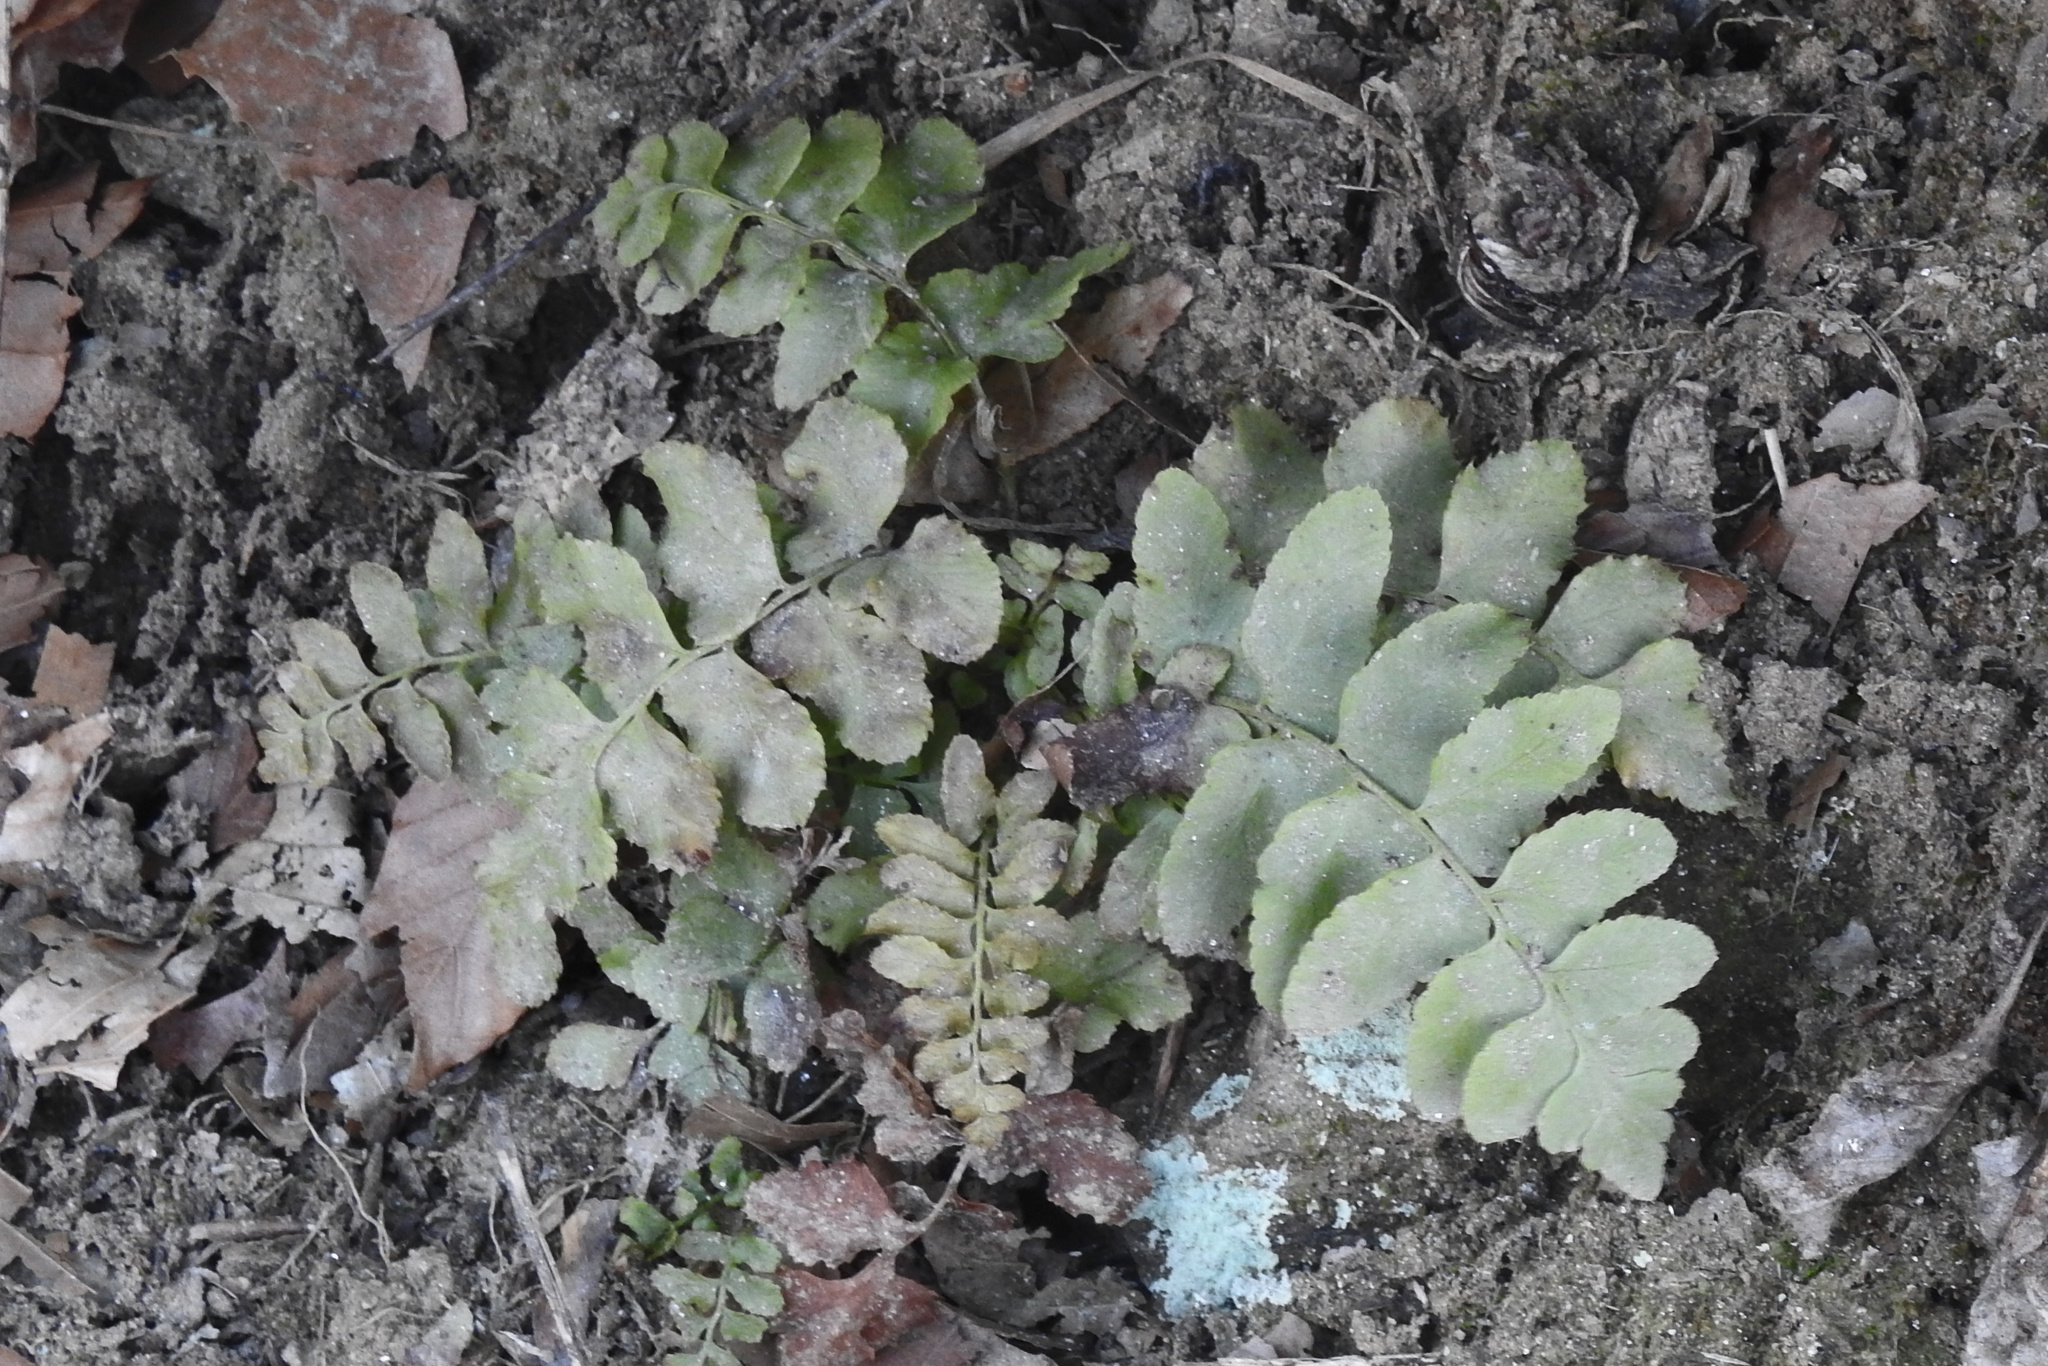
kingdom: Plantae
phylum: Tracheophyta
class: Polypodiopsida
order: Polypodiales
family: Dryopteridaceae
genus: Polystichum
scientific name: Polystichum acrostichoides
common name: Christmas fern
